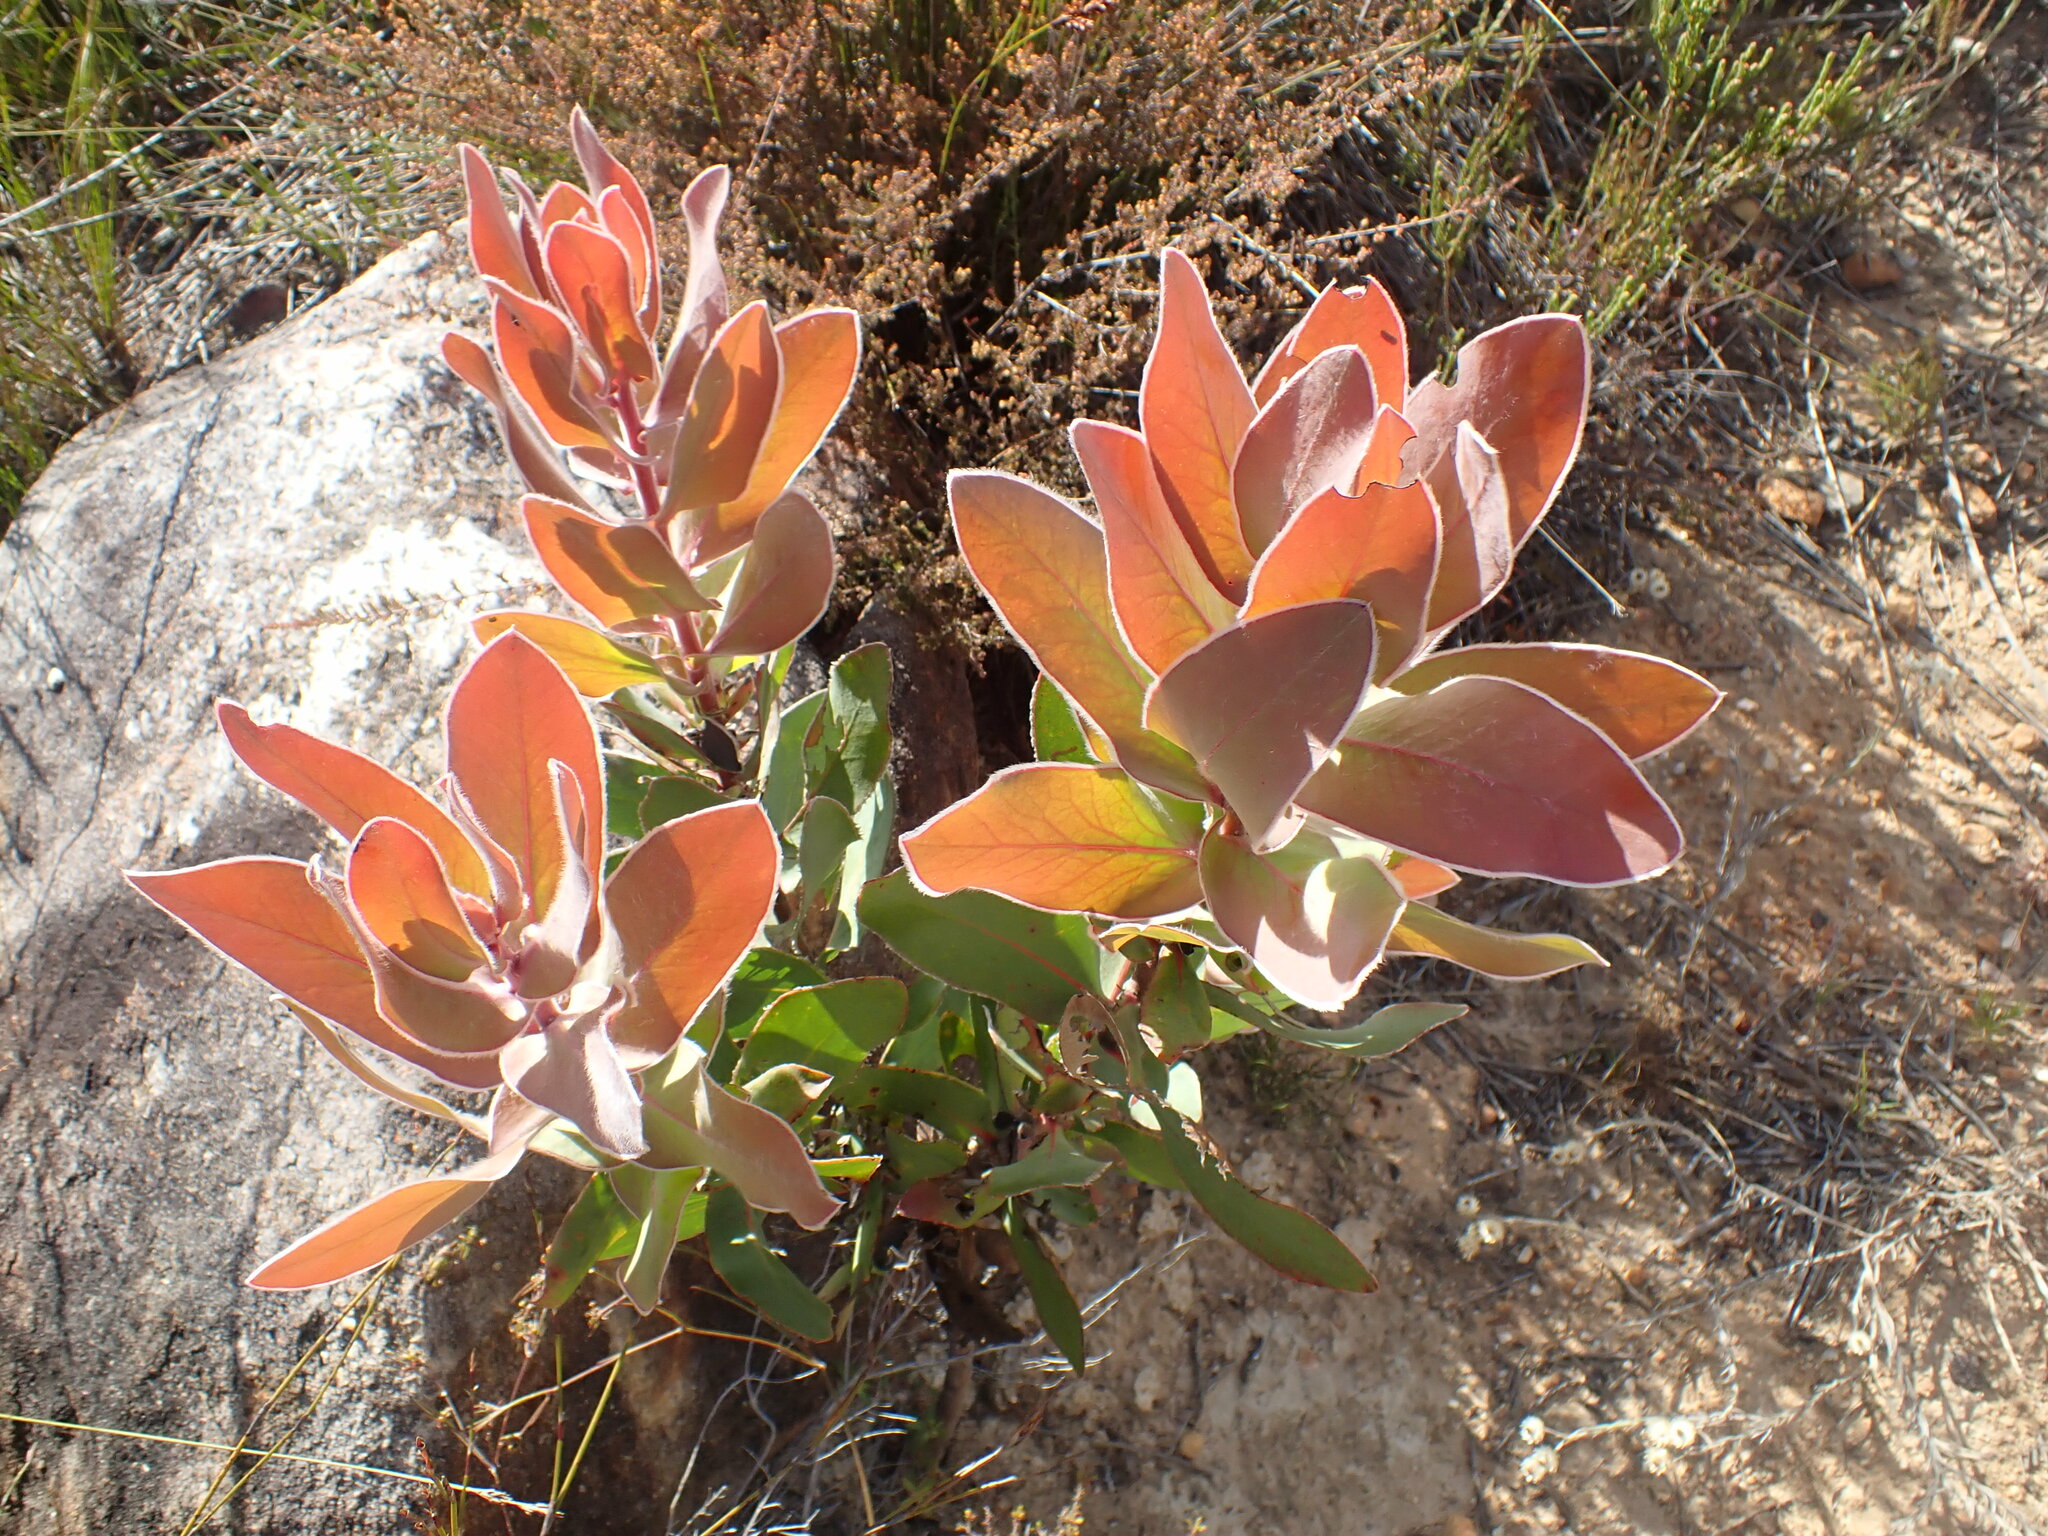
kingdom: Plantae
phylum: Tracheophyta
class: Magnoliopsida
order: Proteales
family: Proteaceae
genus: Protea
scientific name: Protea eximia
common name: Broad-leaved sugarbush
